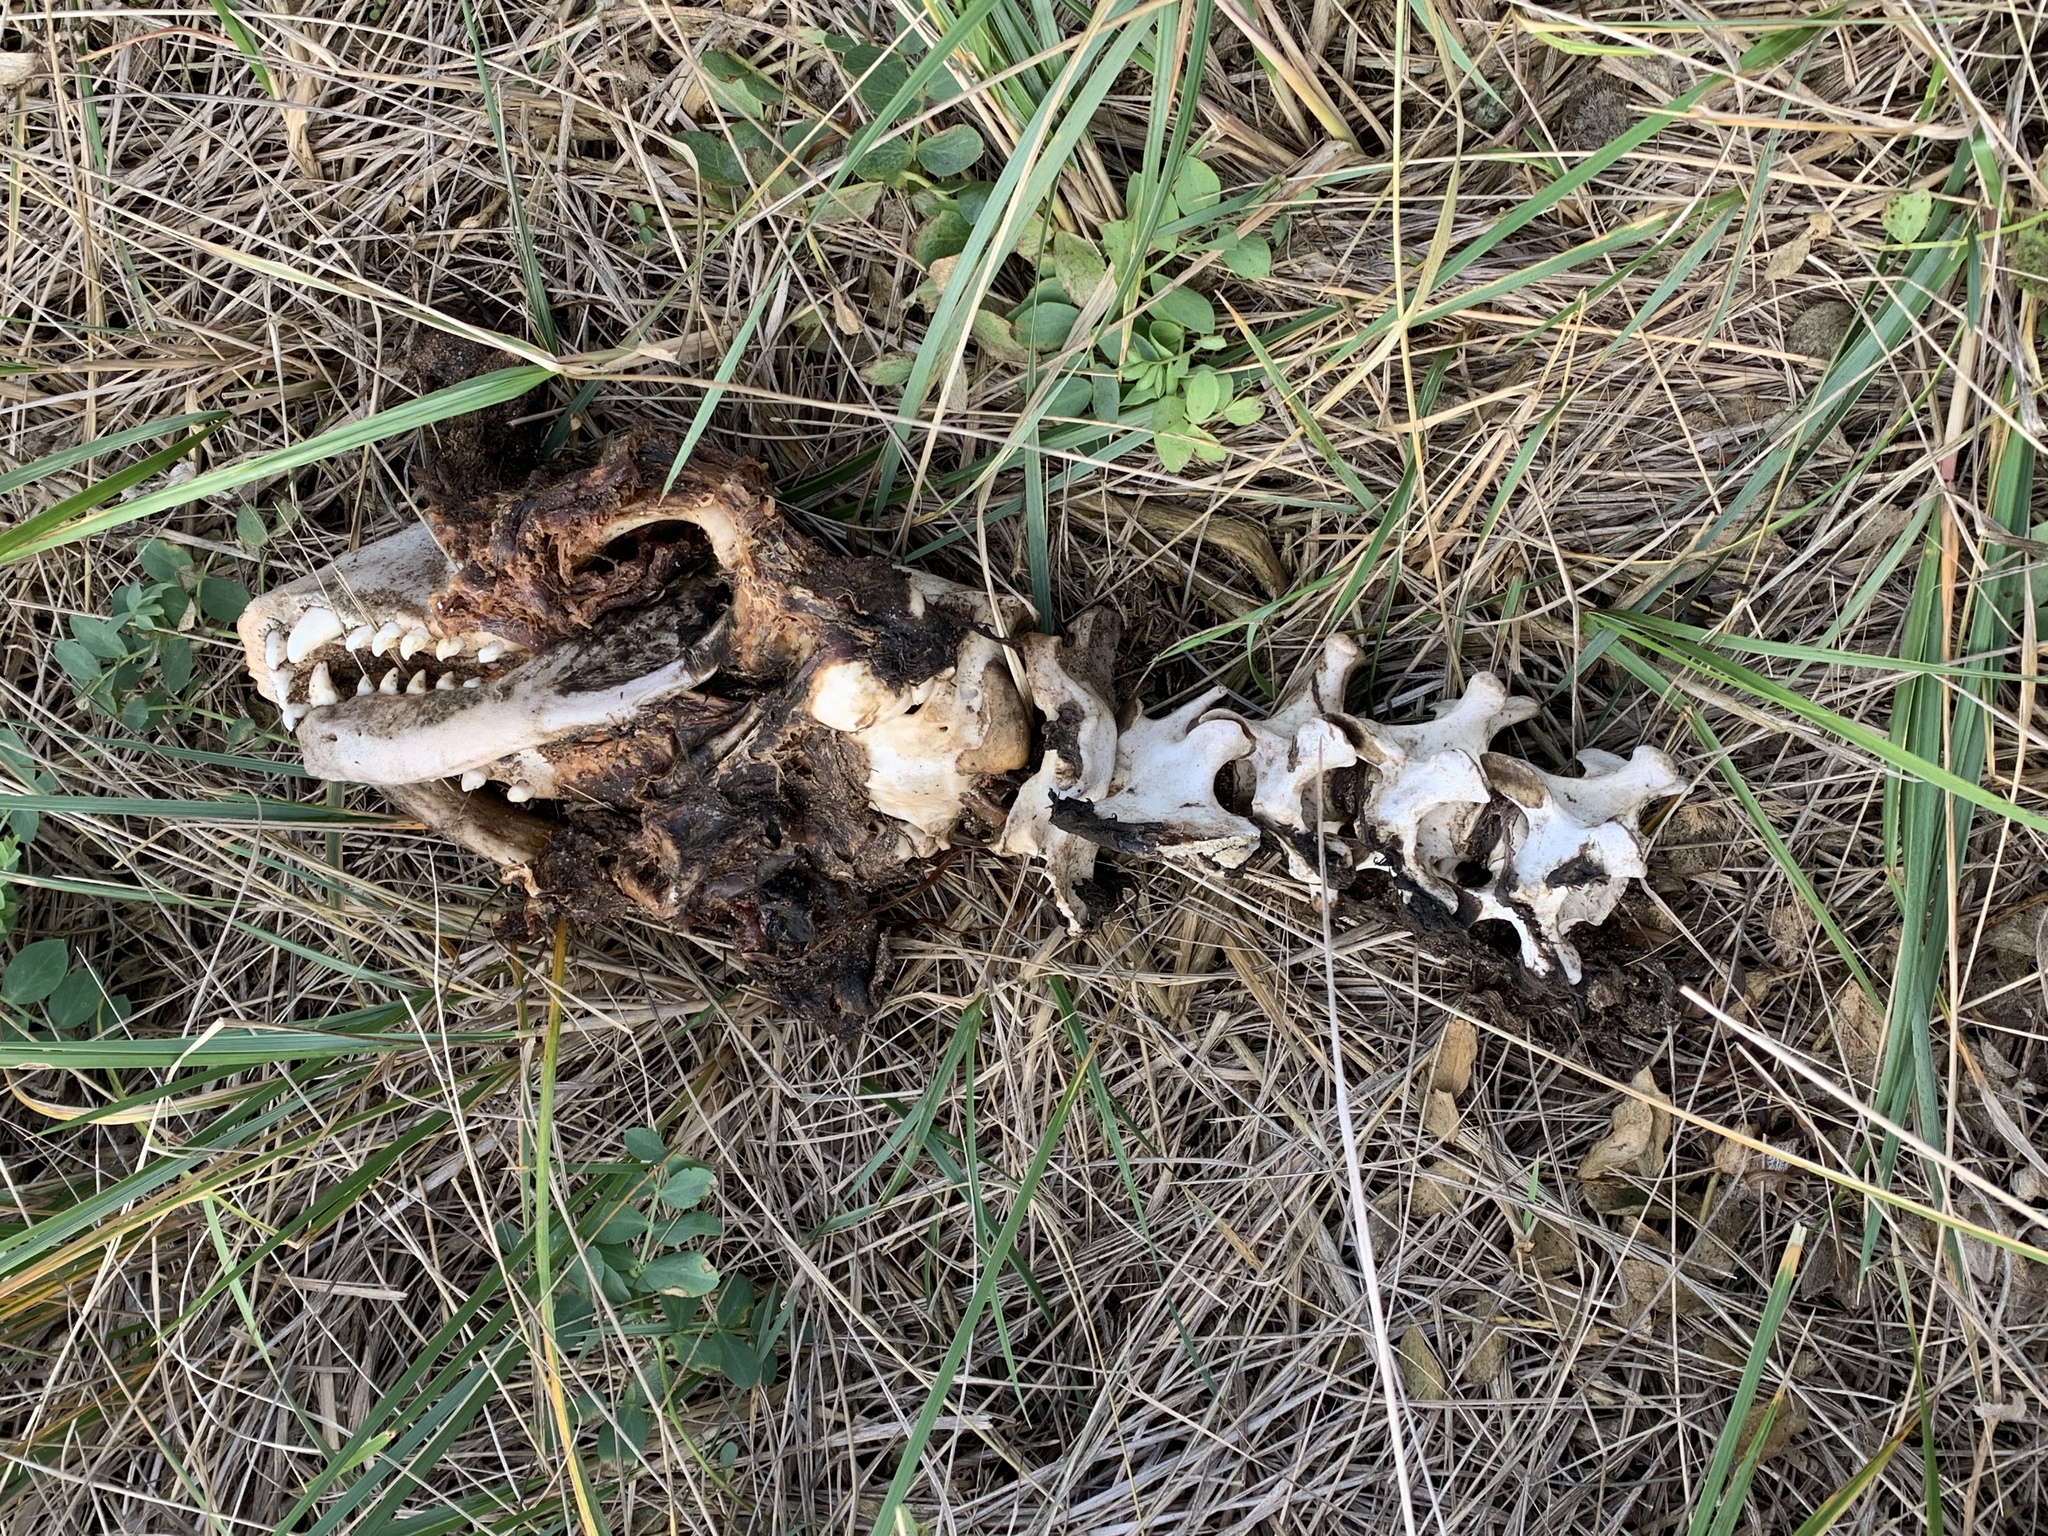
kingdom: Animalia
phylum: Chordata
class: Mammalia
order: Carnivora
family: Phocidae
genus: Halichoerus
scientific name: Halichoerus grypus
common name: Grey seal
